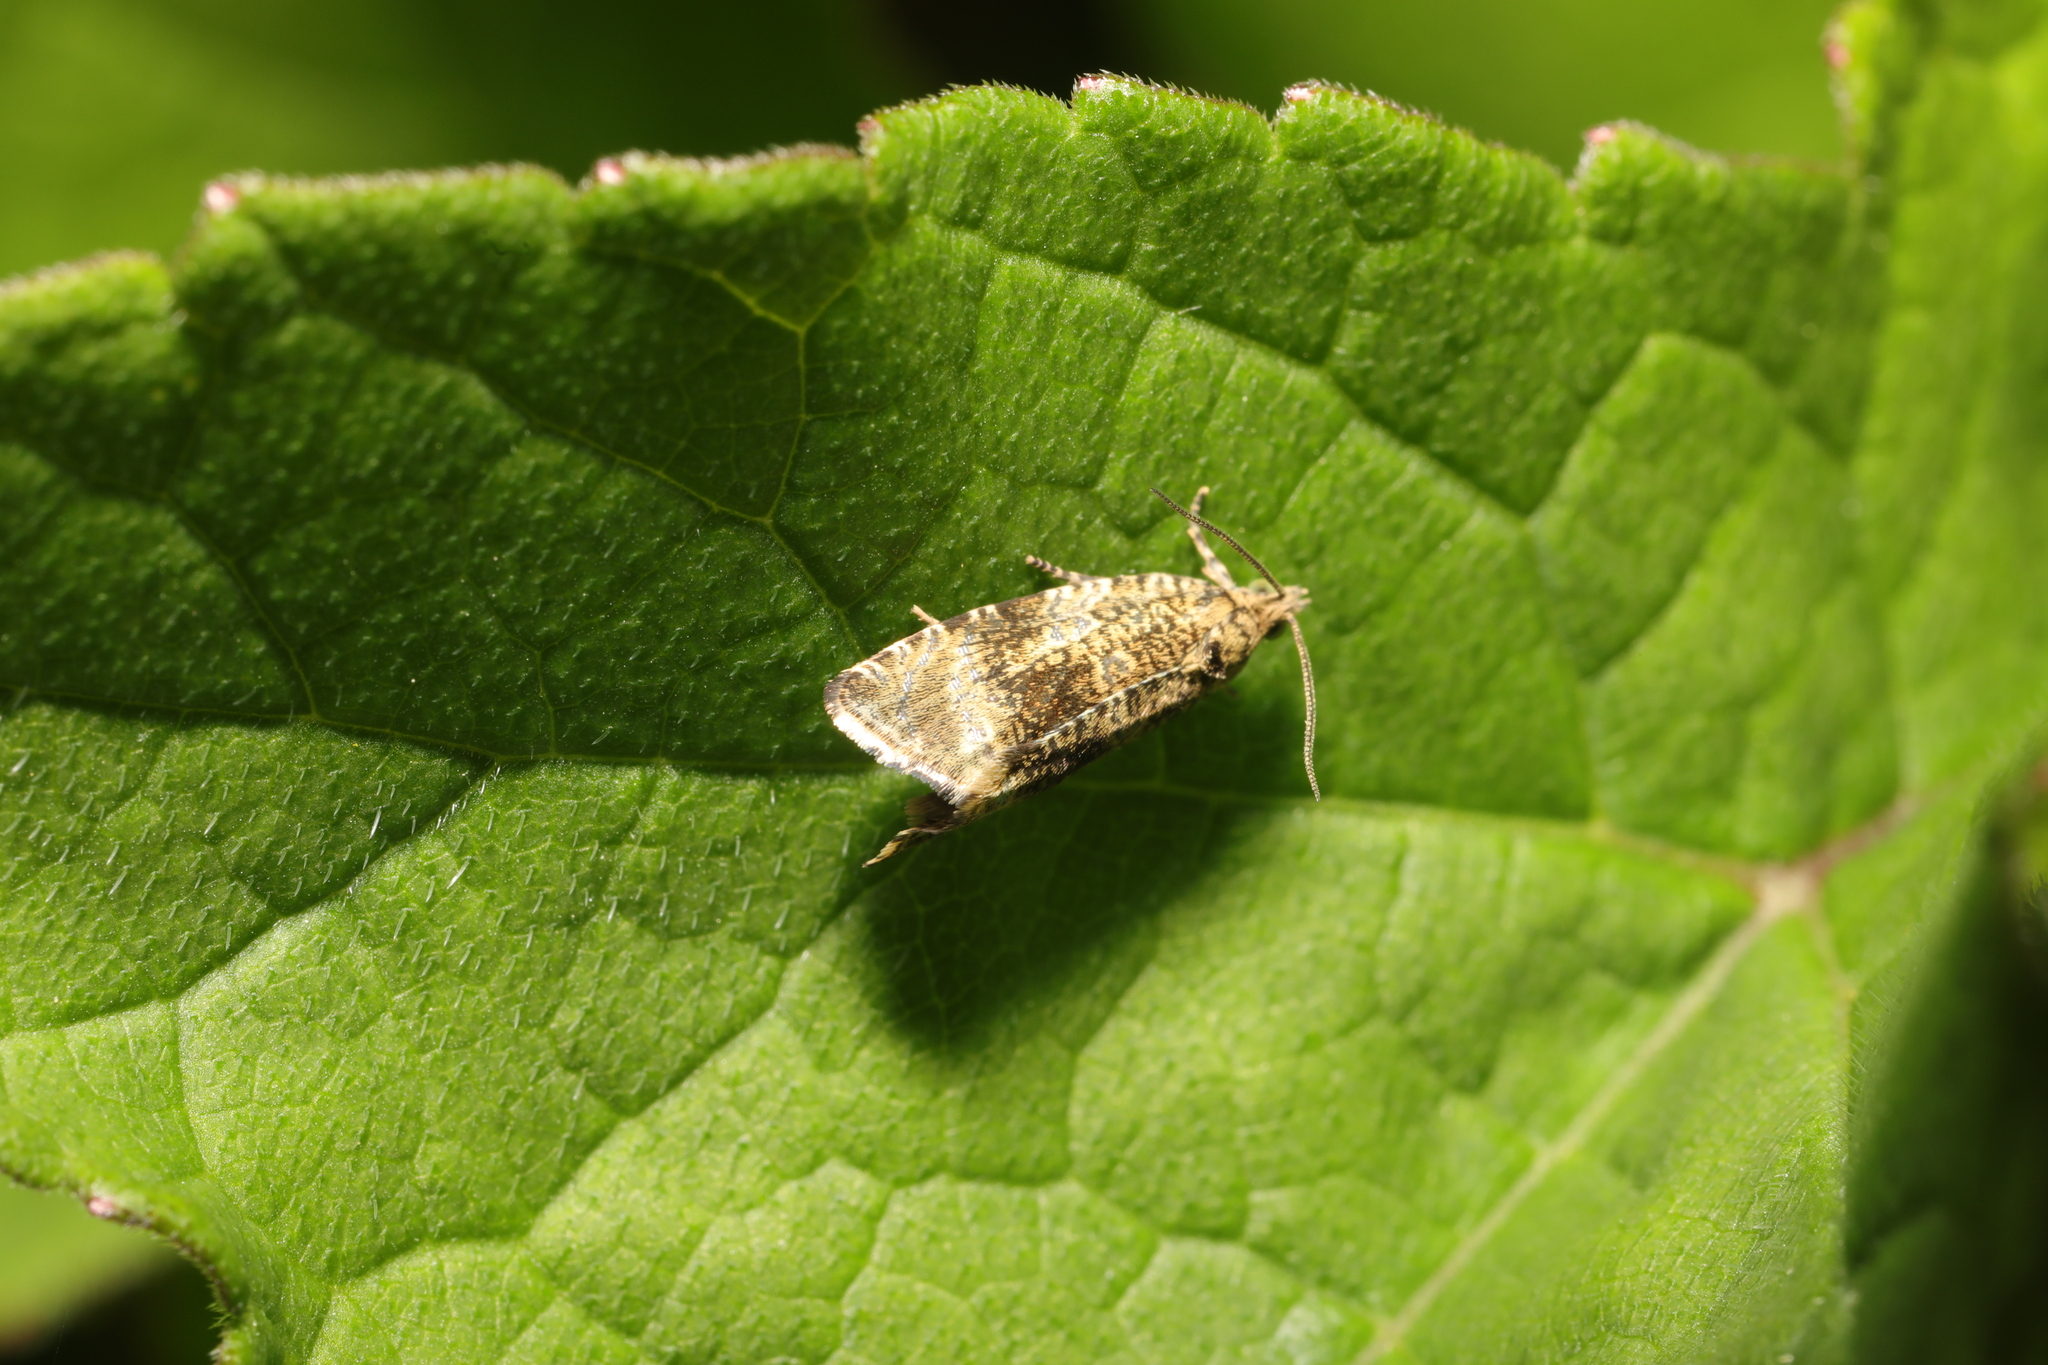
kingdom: Animalia
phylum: Arthropoda
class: Insecta
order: Lepidoptera
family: Tortricidae
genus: Syricoris
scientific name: Syricoris lacunana
